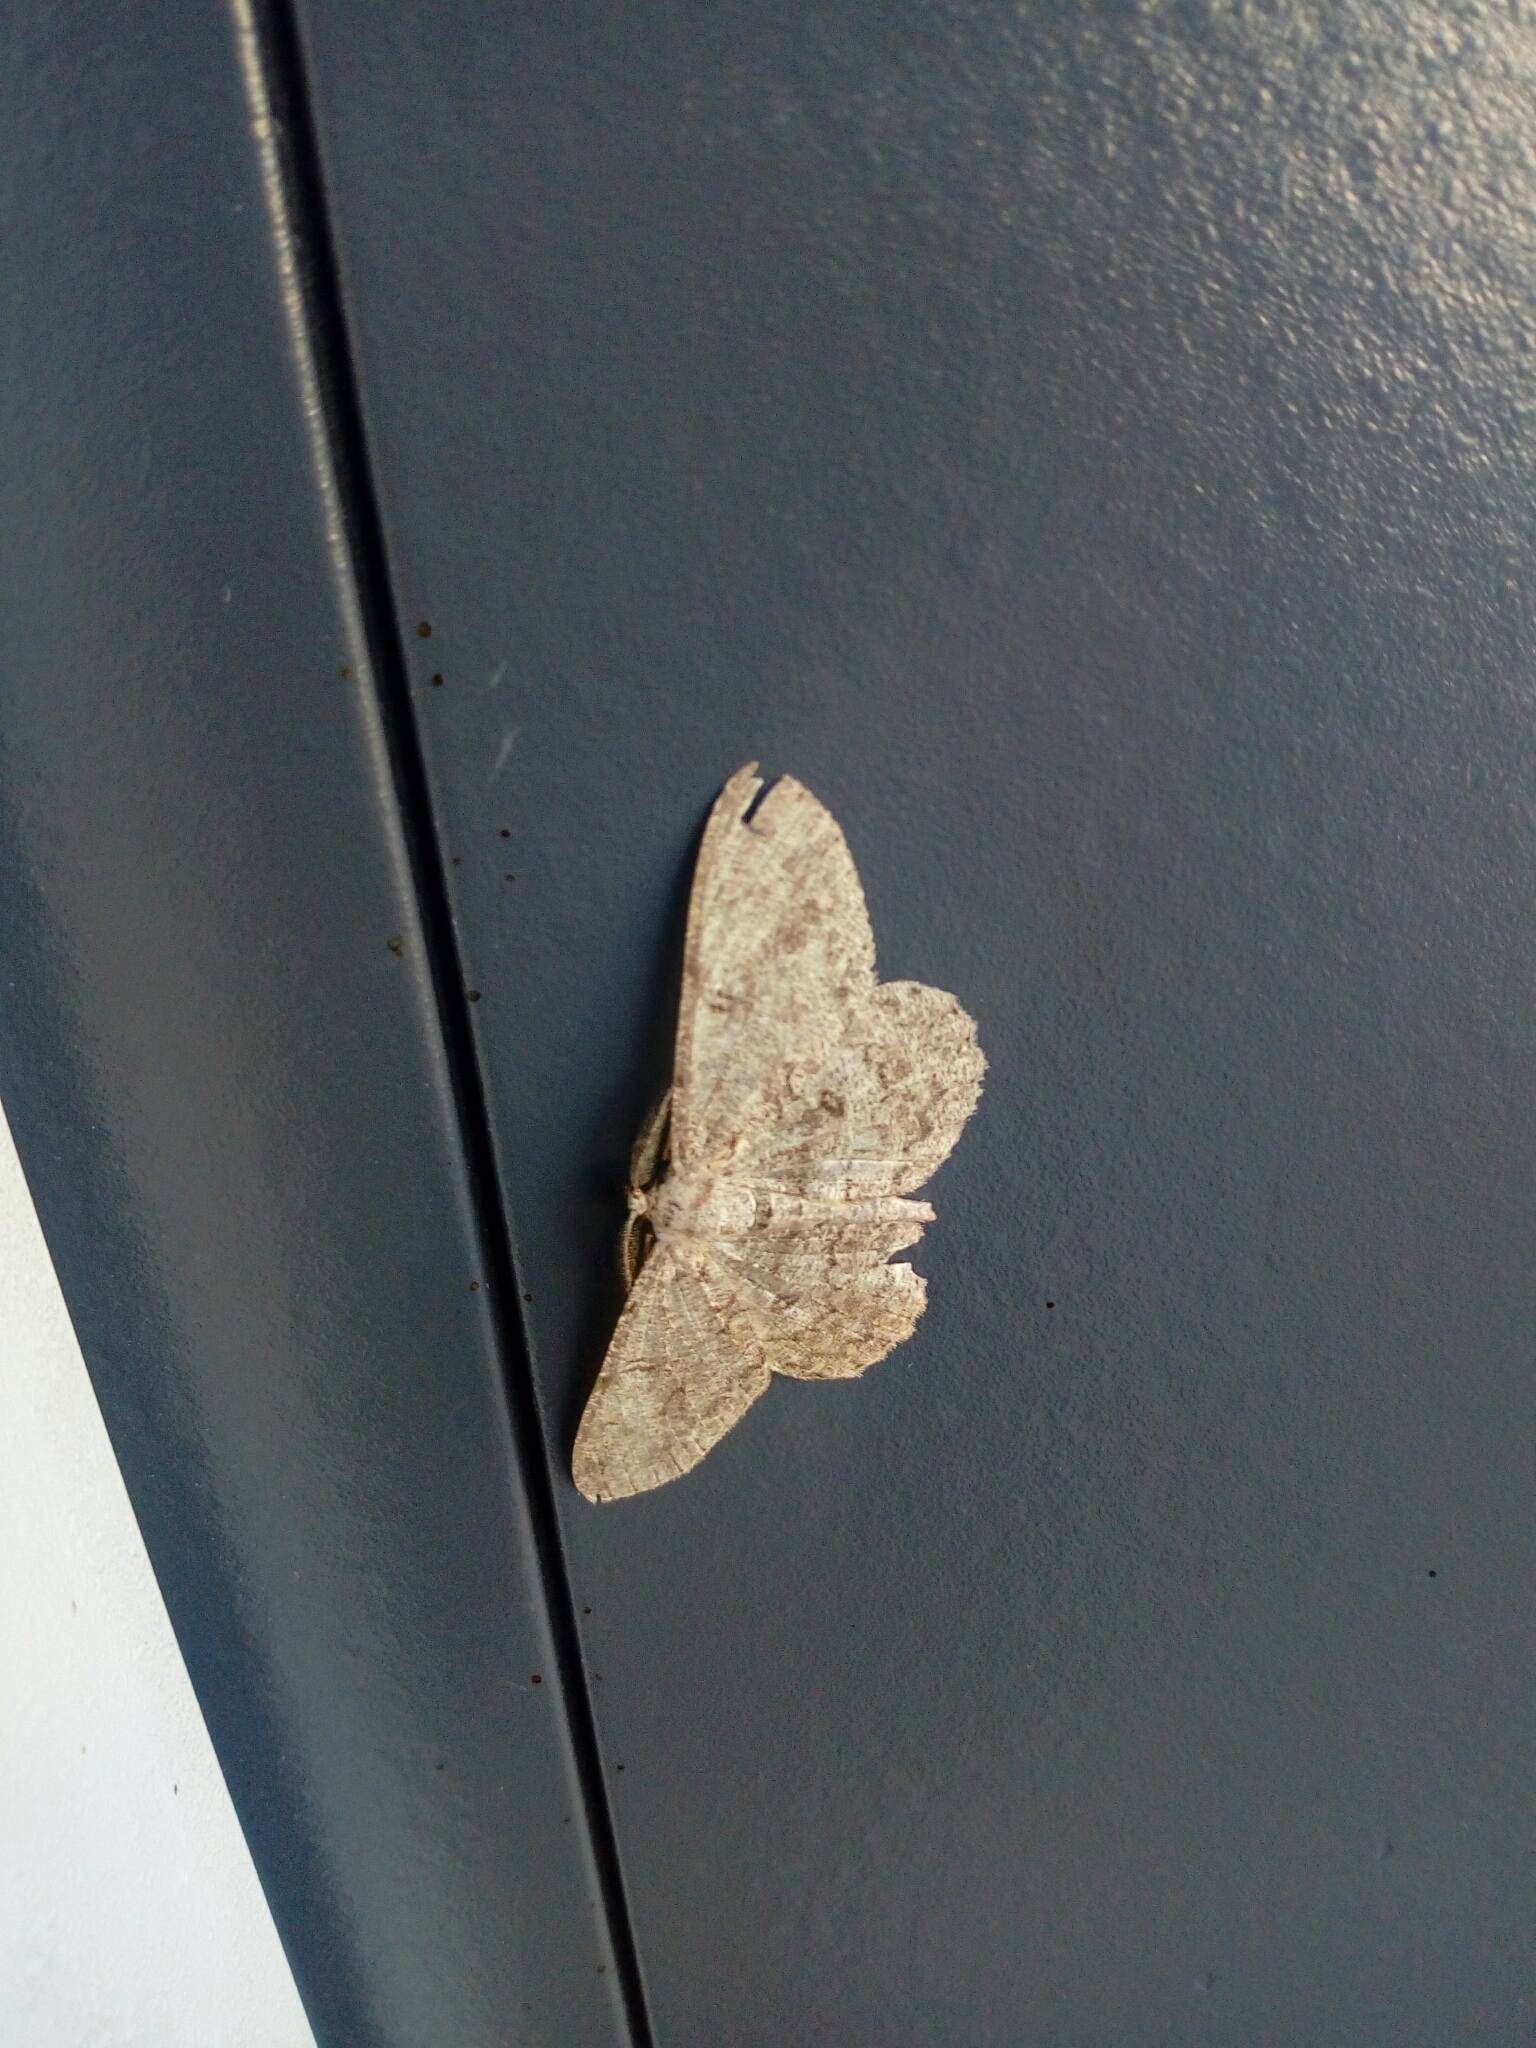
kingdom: Animalia
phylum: Arthropoda
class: Insecta
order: Lepidoptera
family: Geometridae
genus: Hypomecis
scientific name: Hypomecis punctinalis
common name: Pale oak beauty
